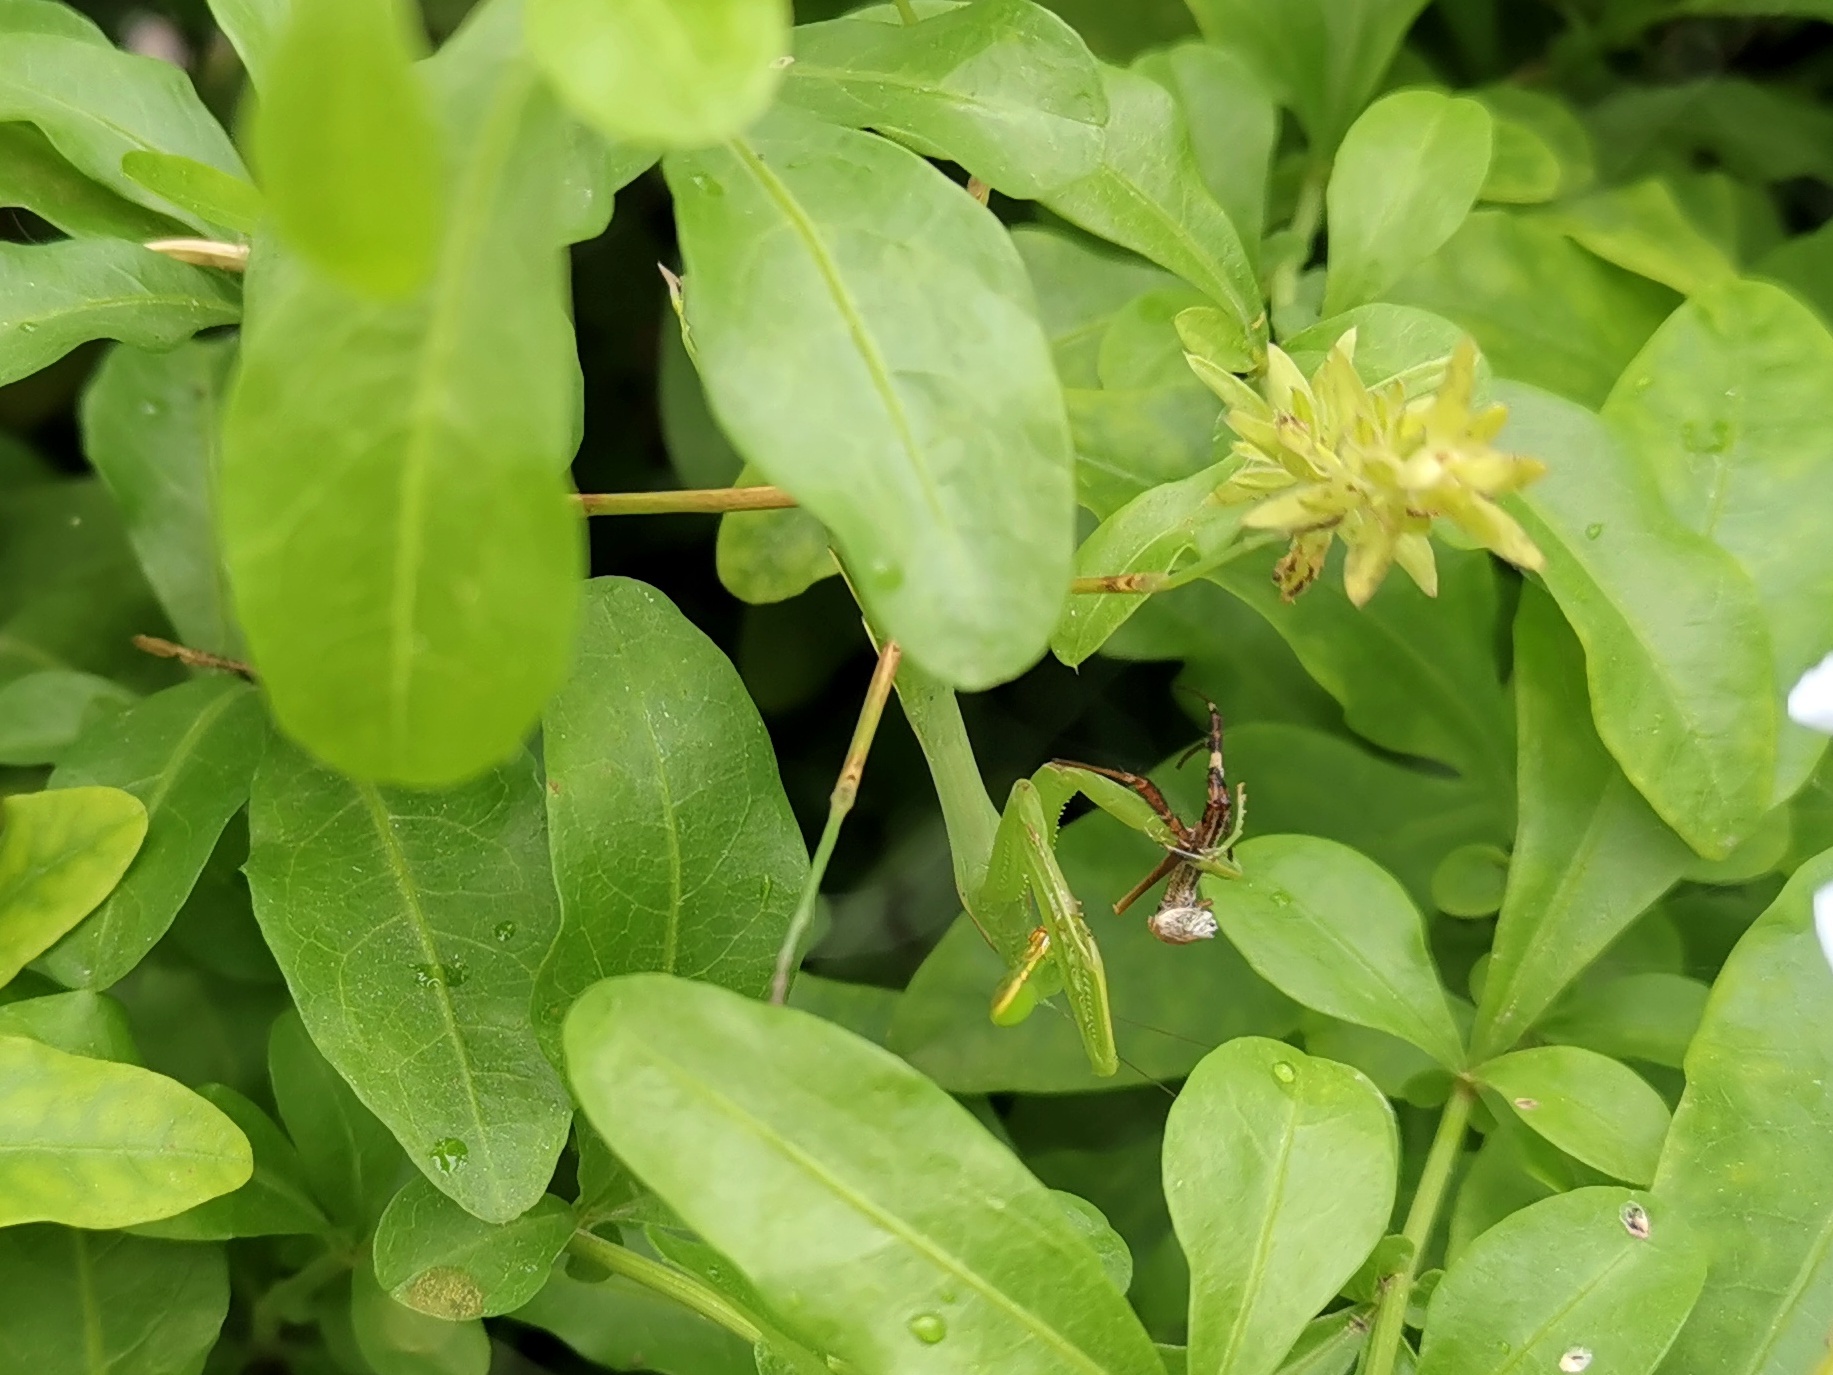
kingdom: Animalia
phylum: Arthropoda
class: Insecta
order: Mantodea
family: Mantidae
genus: Hierodula
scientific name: Hierodula membranacea
